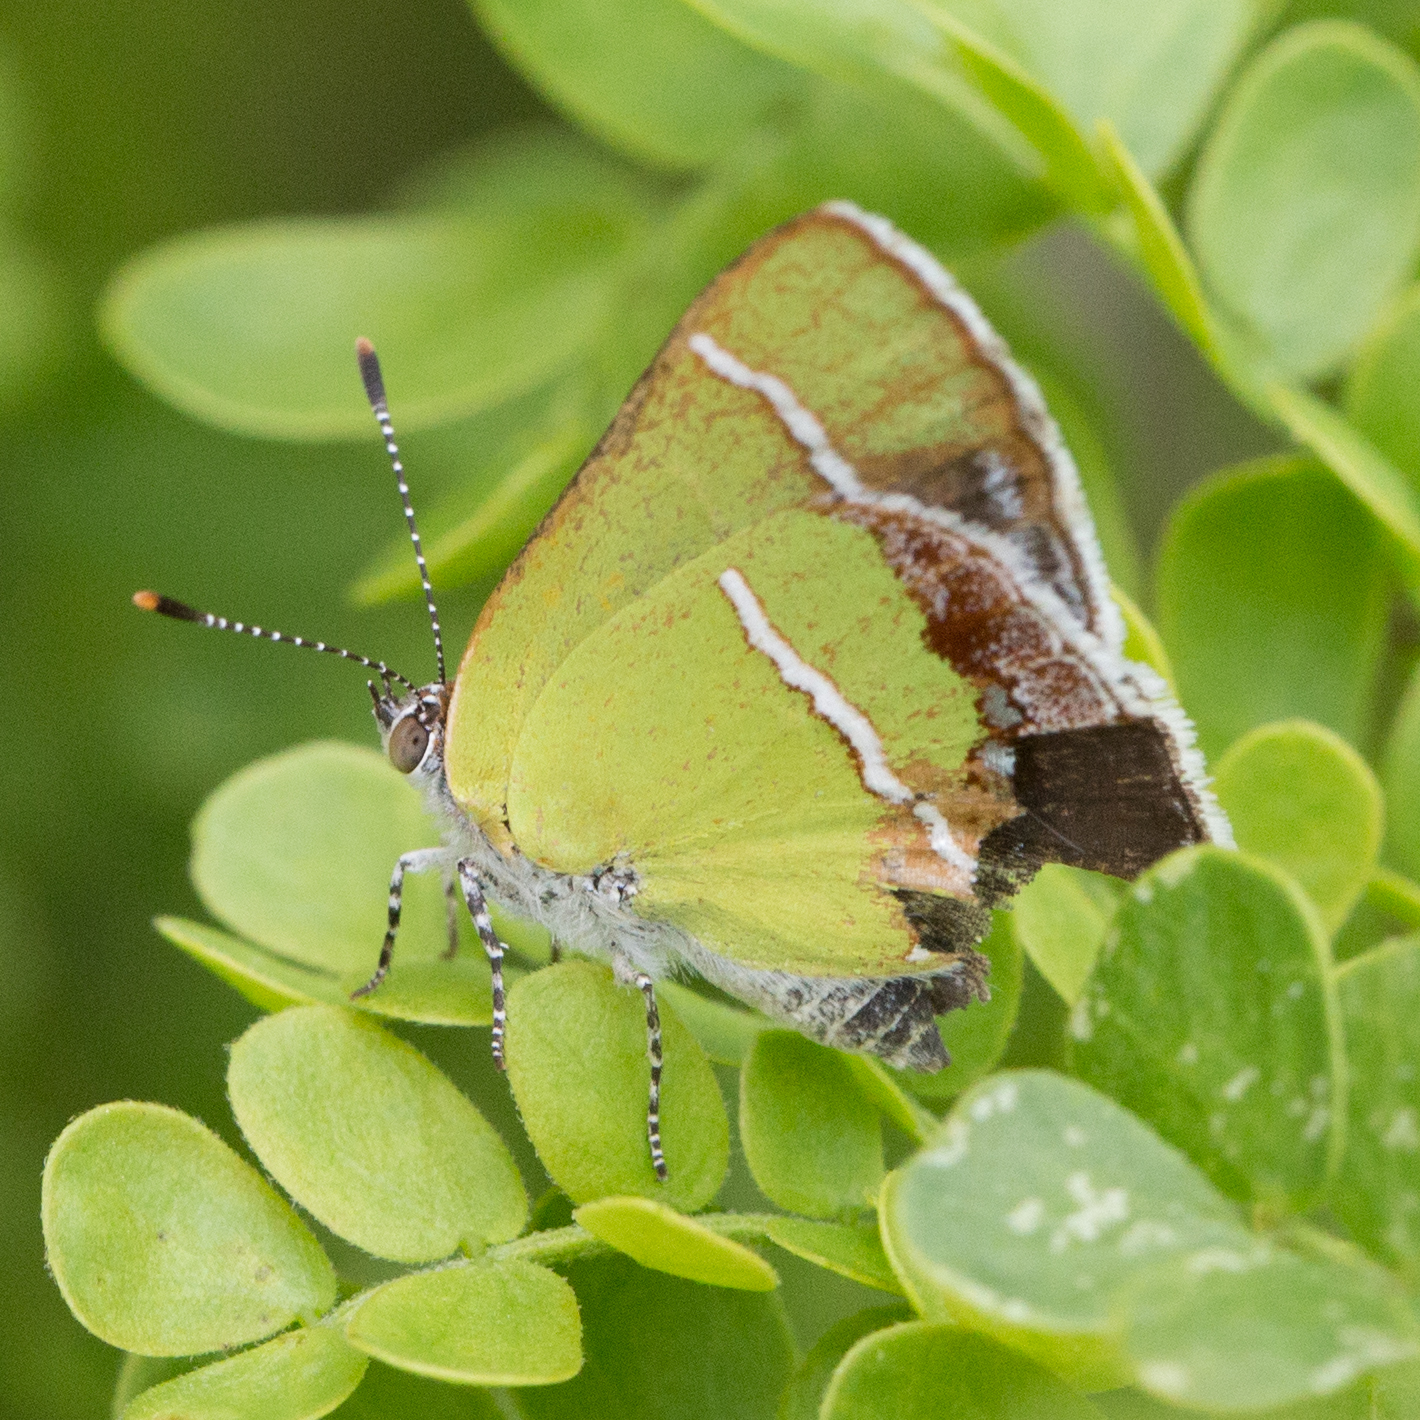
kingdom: Animalia
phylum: Arthropoda
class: Insecta
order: Lepidoptera
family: Lycaenidae
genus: Chlorostrymon
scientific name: Chlorostrymon simaethis
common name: Silver-banded hairstreak
